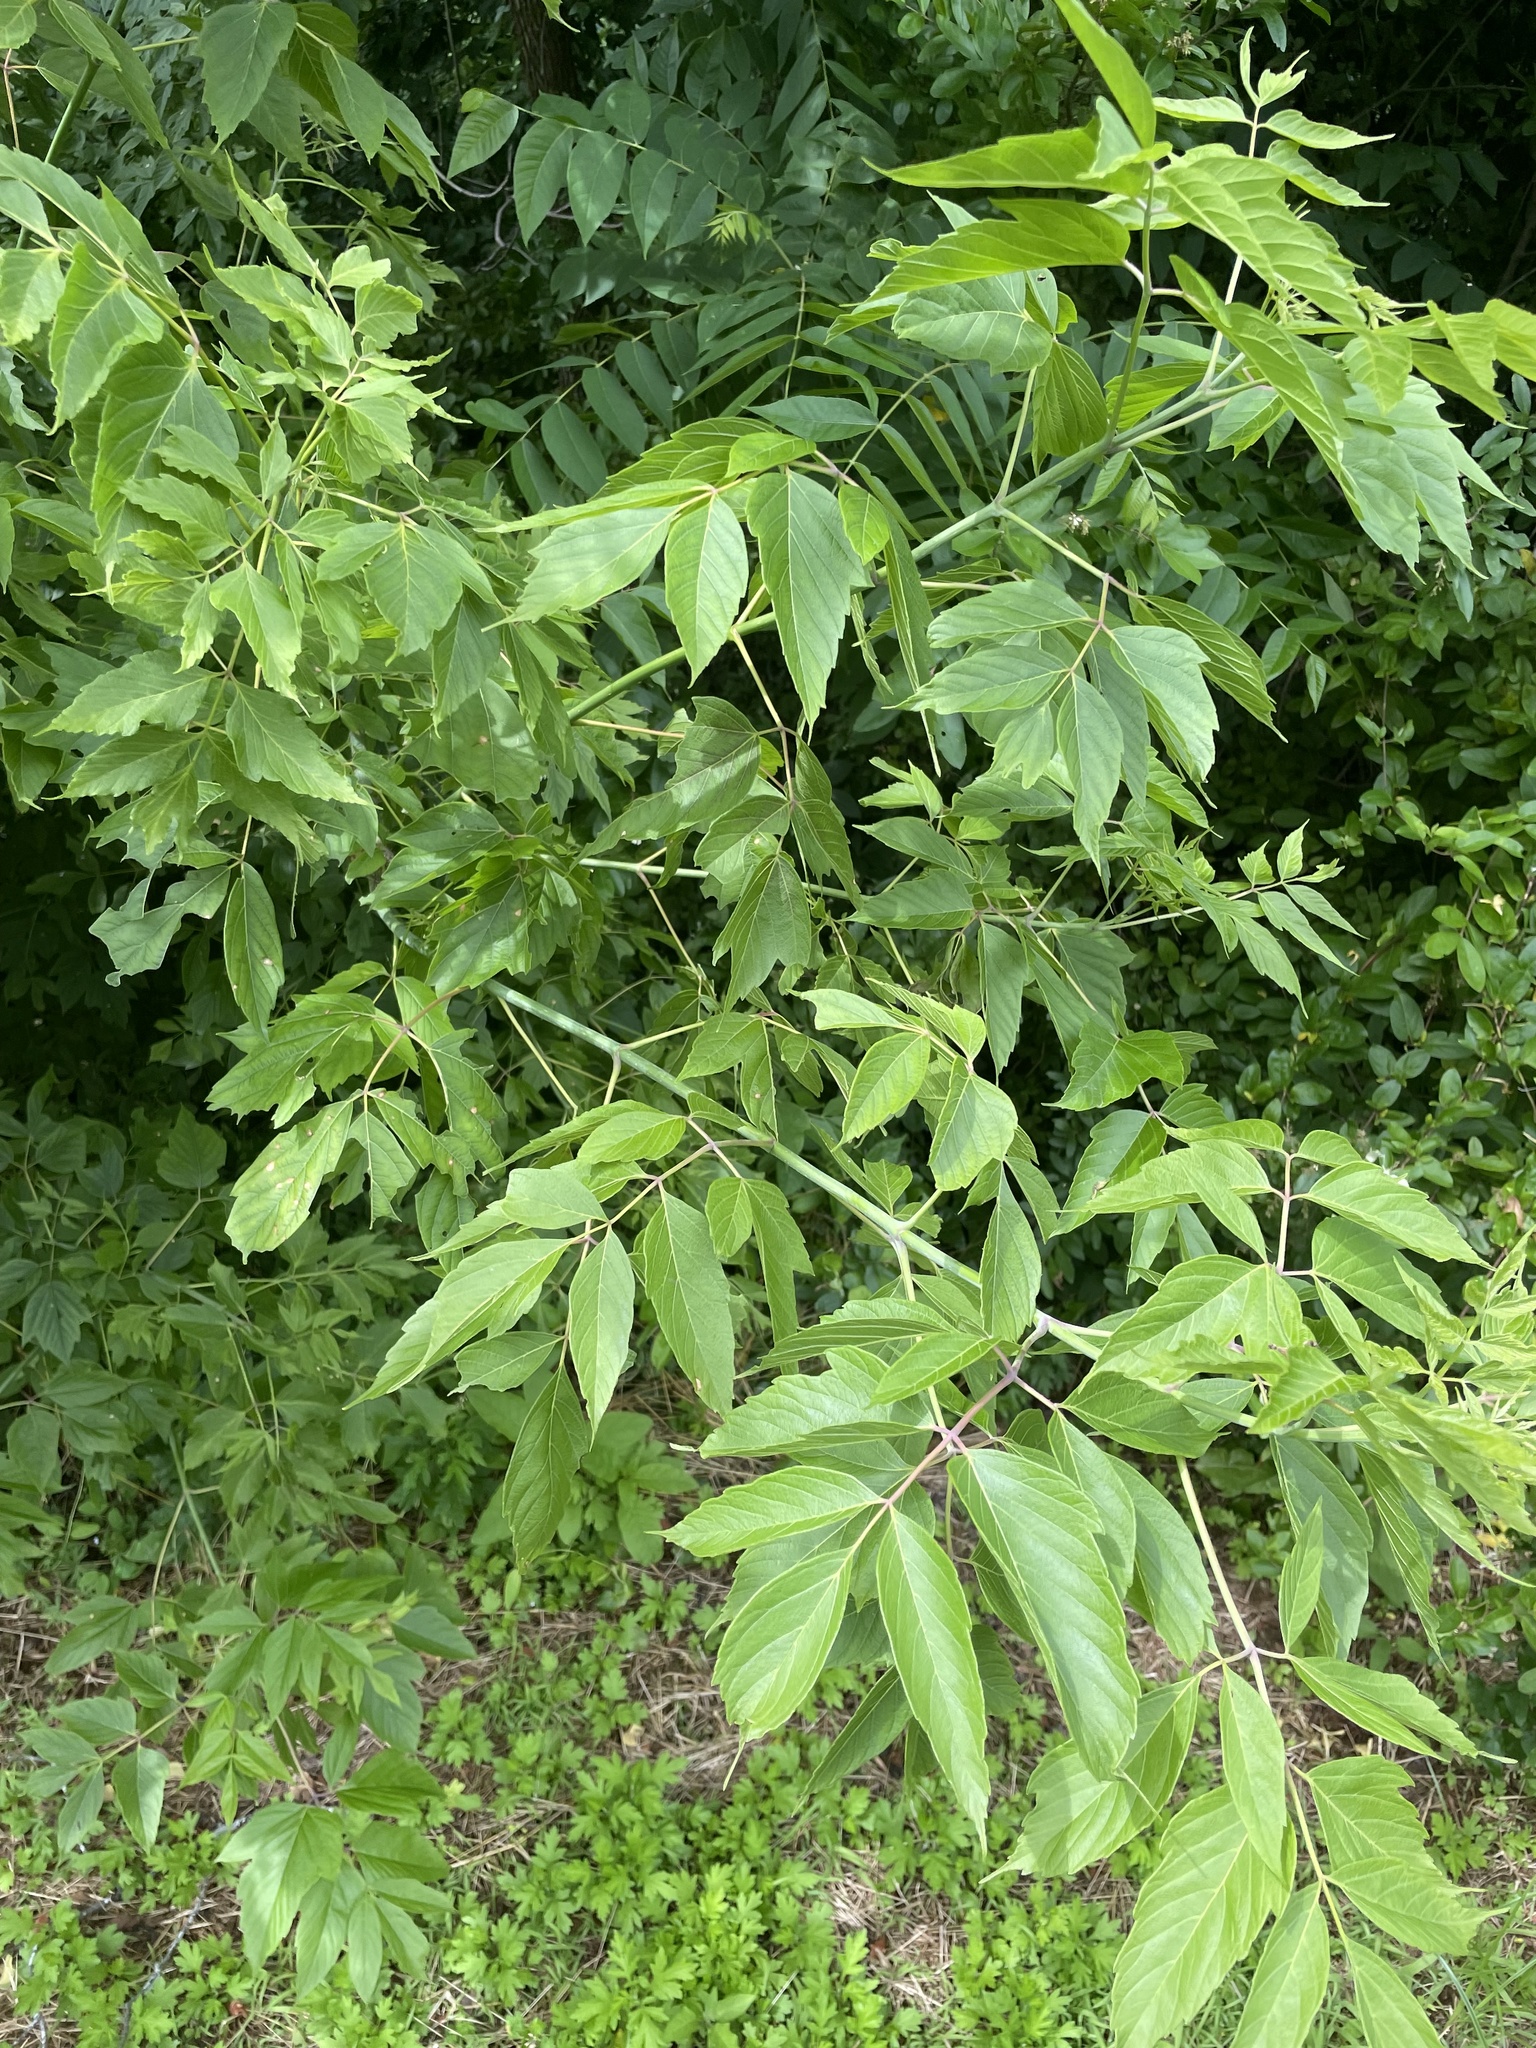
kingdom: Plantae
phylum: Tracheophyta
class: Magnoliopsida
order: Sapindales
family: Sapindaceae
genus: Acer
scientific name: Acer negundo
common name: Ashleaf maple
